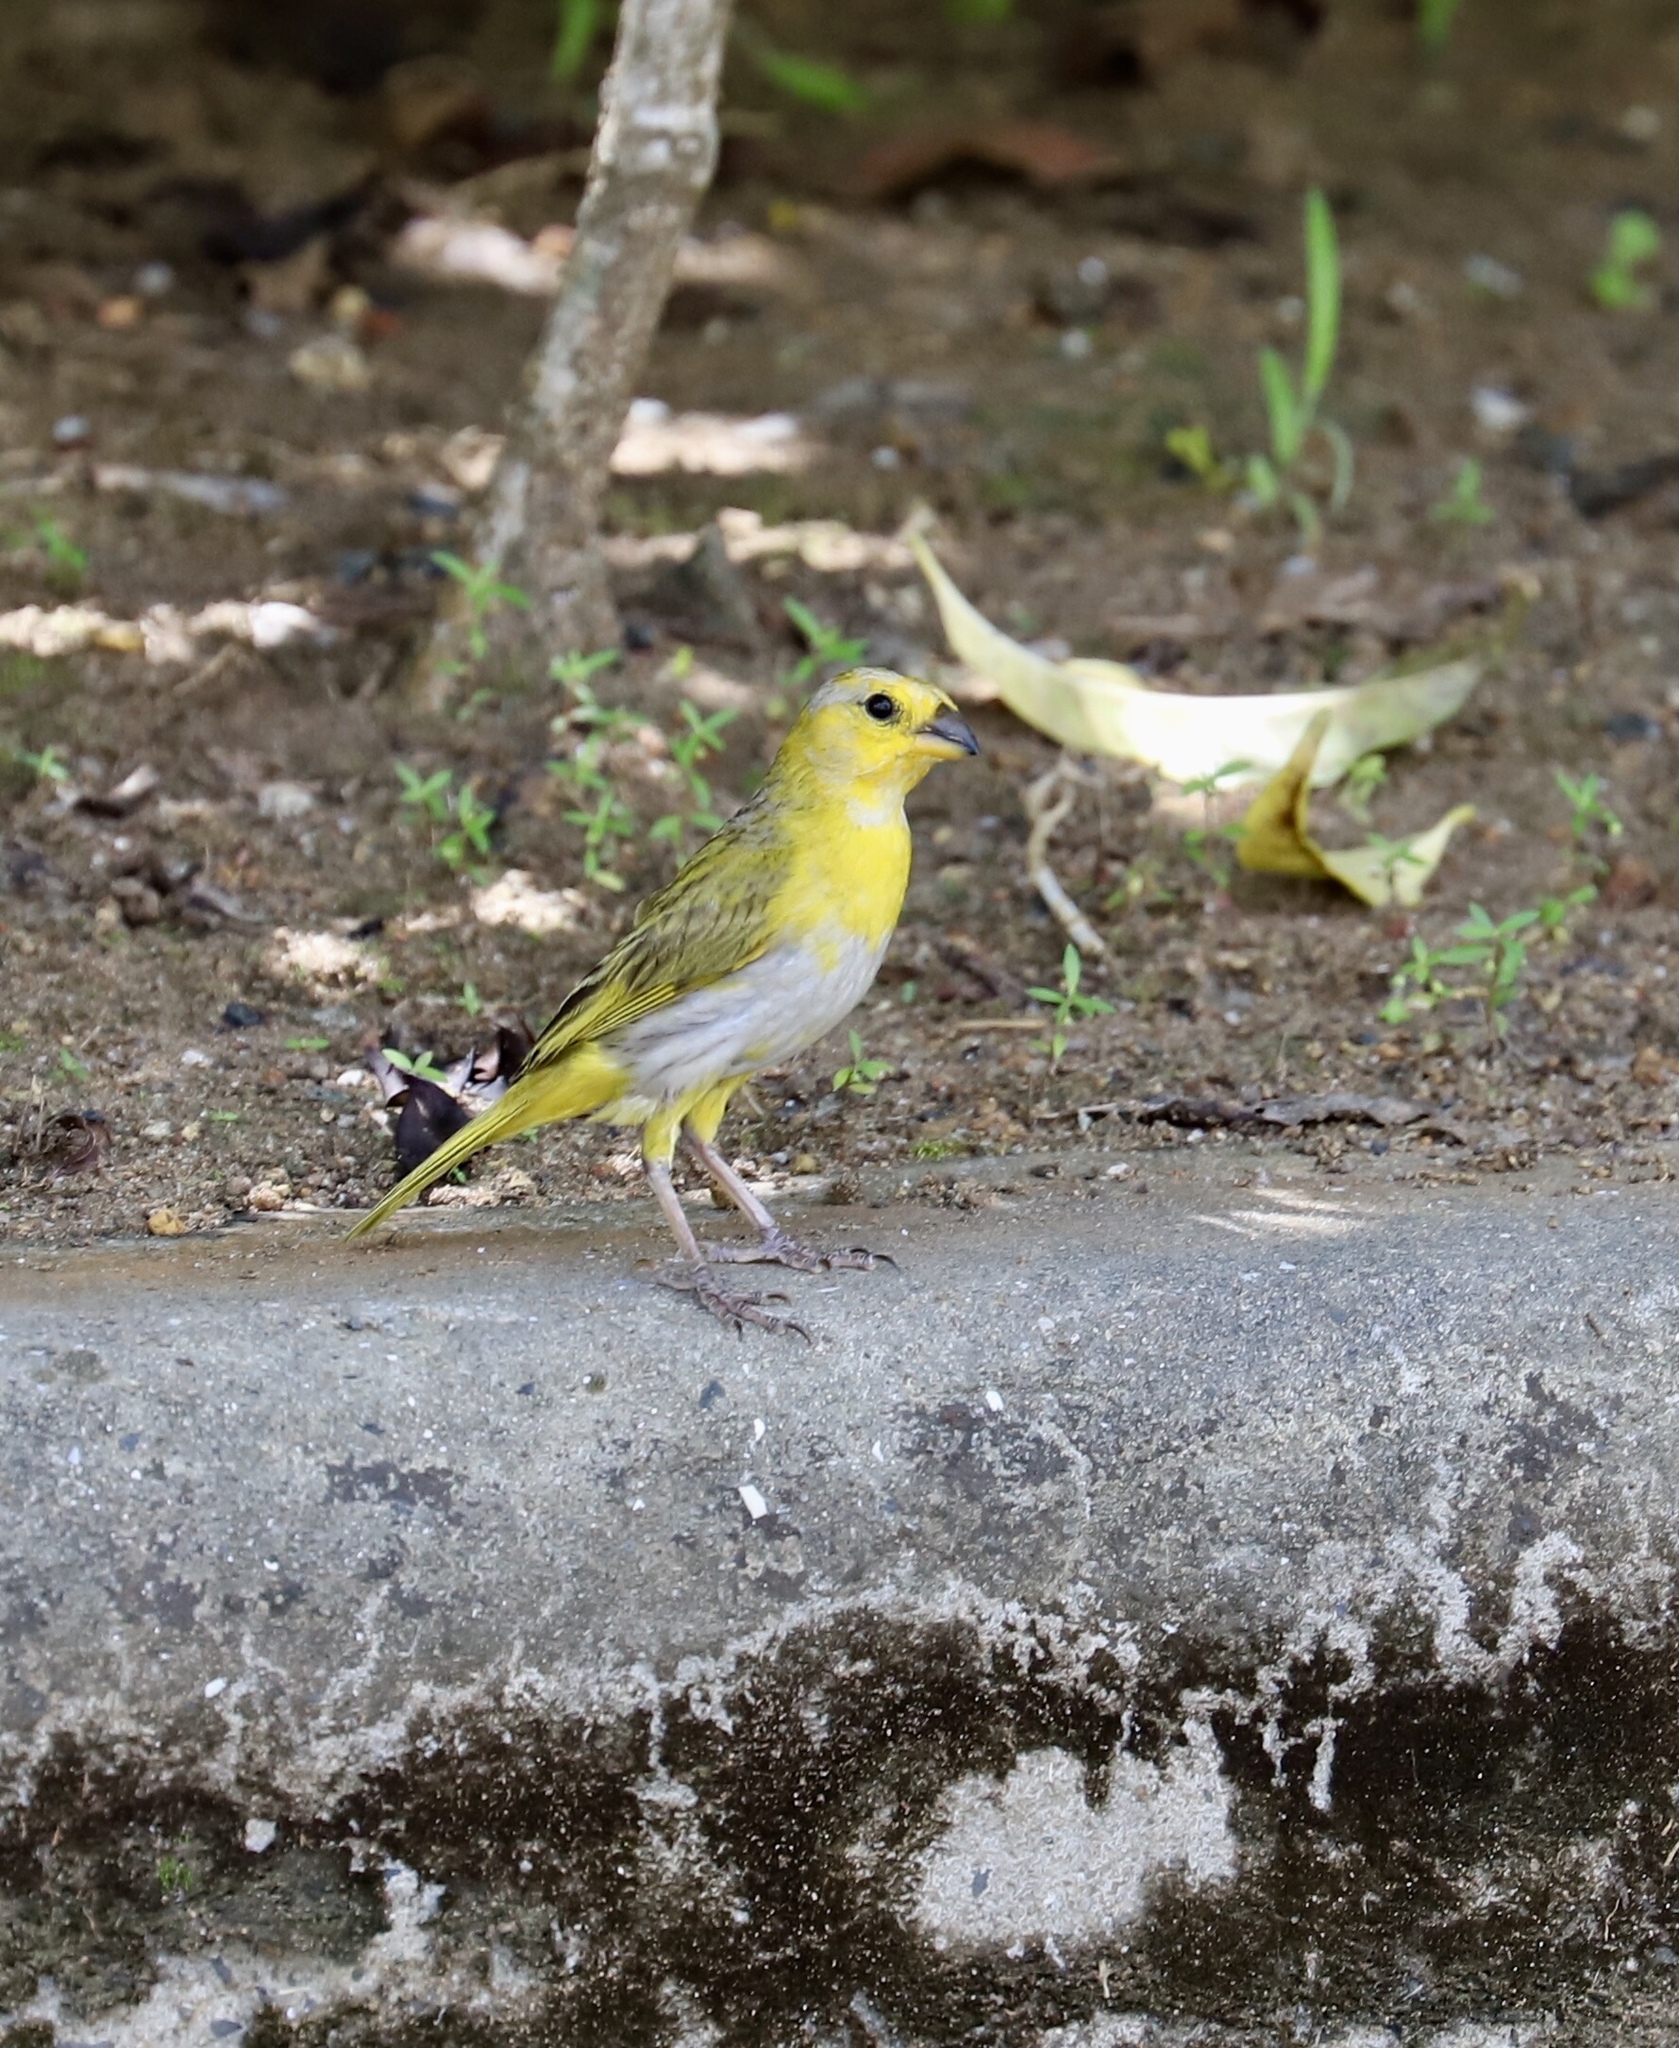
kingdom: Animalia
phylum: Chordata
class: Aves
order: Passeriformes
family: Thraupidae
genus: Sicalis
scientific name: Sicalis flaveola
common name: Saffron finch
